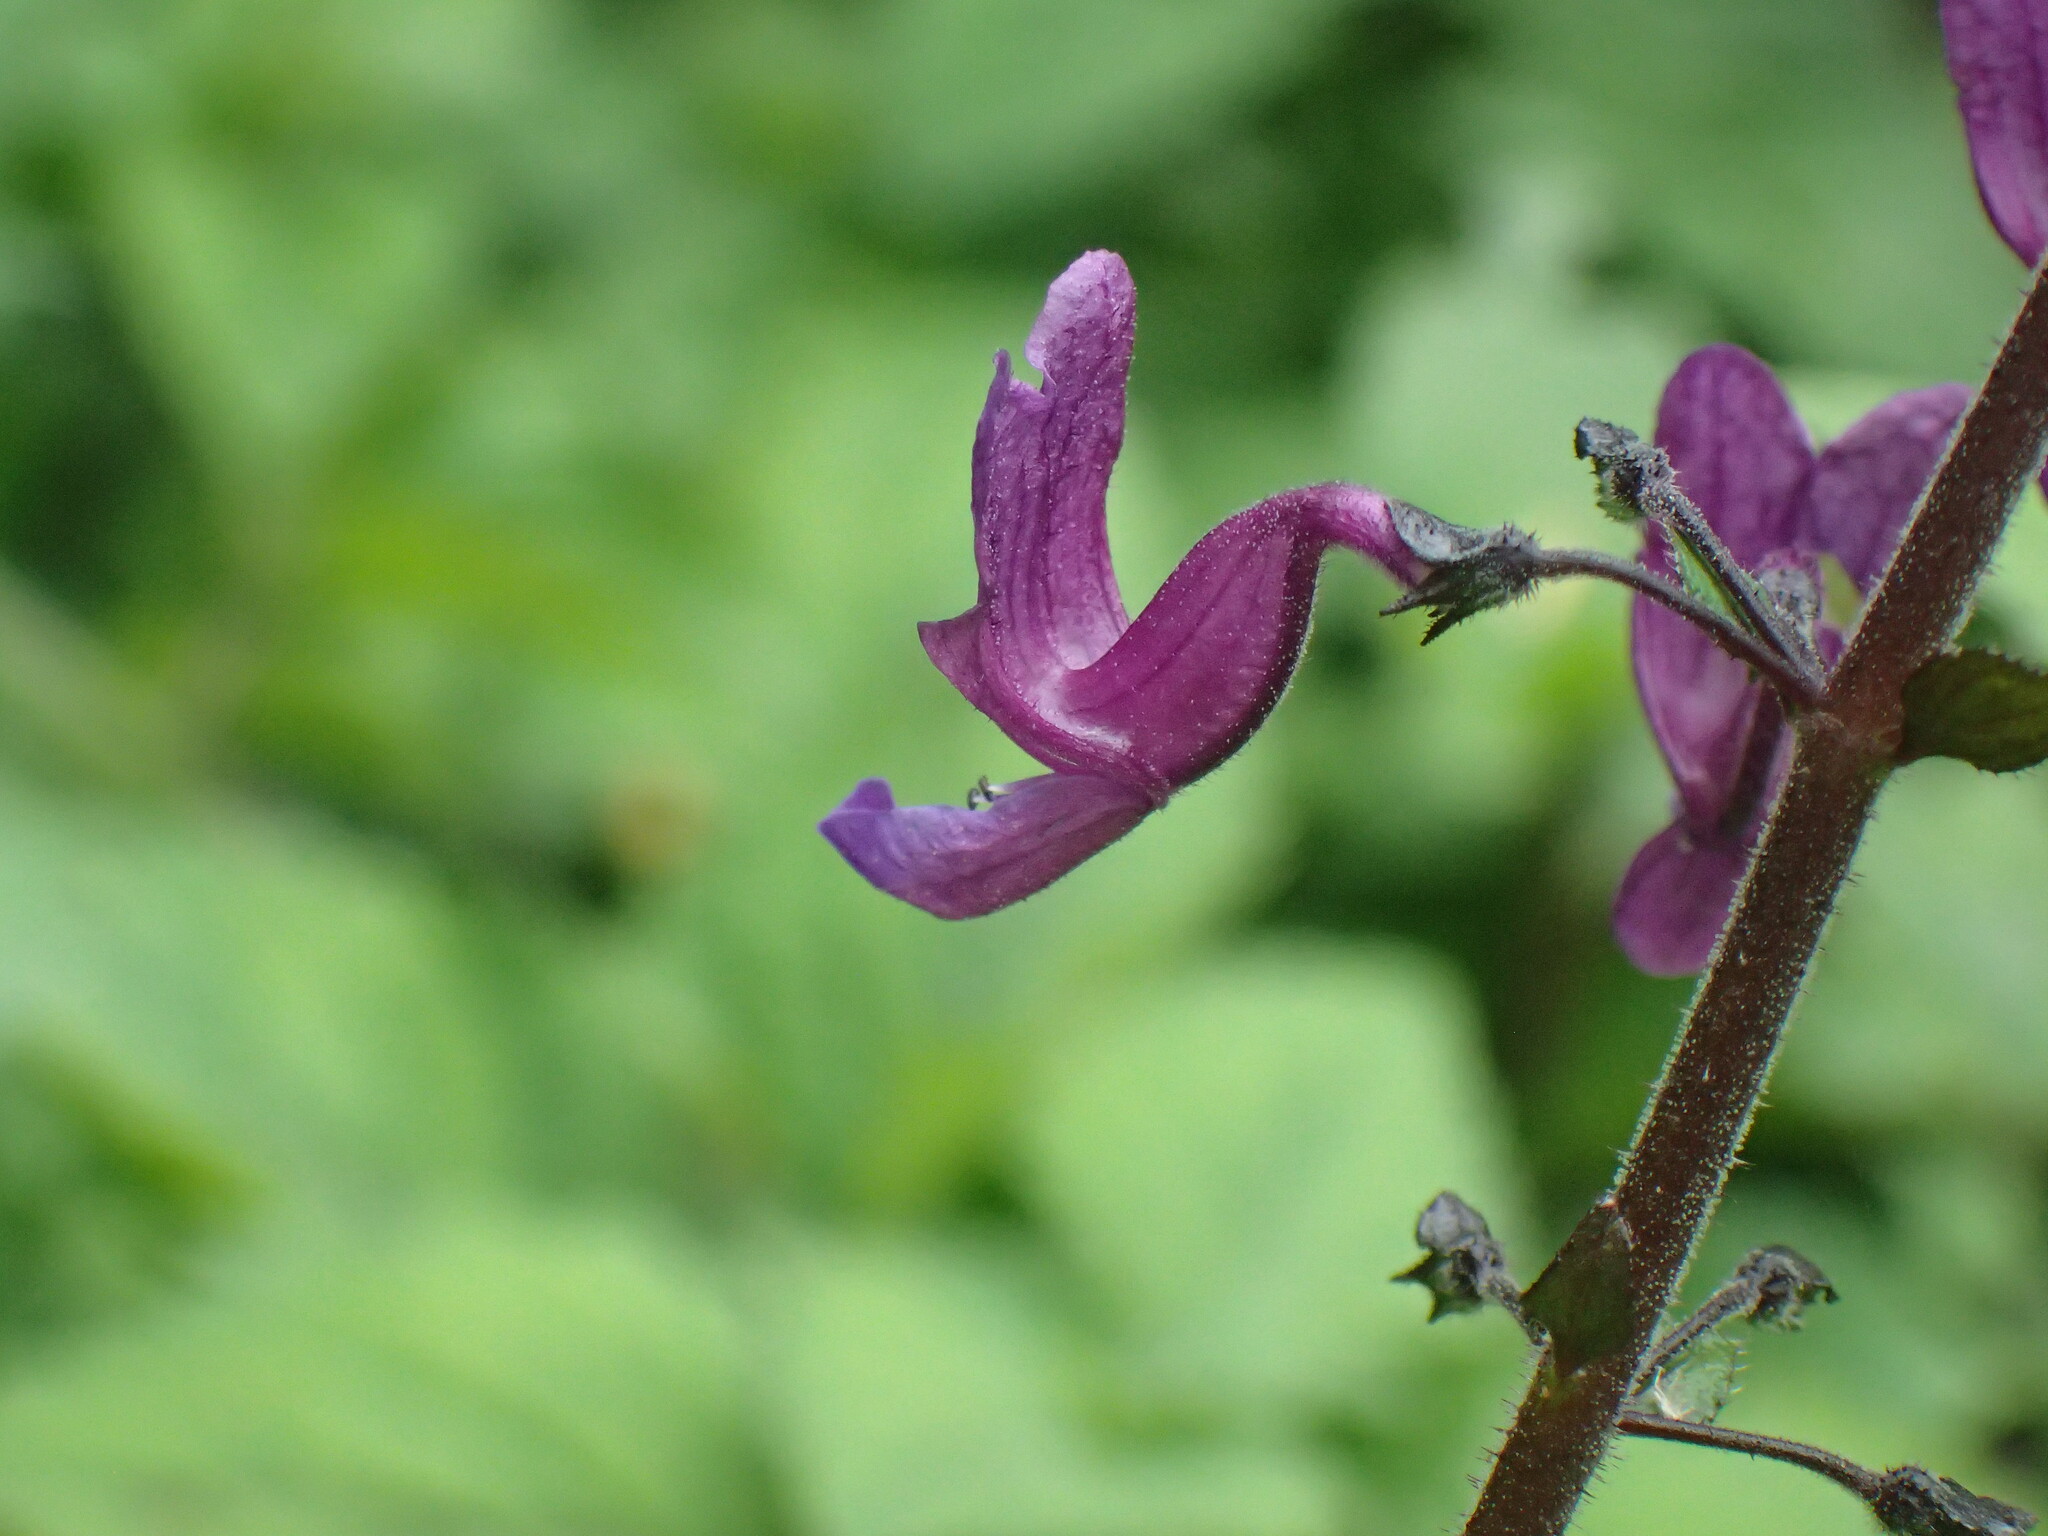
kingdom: Plantae
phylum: Tracheophyta
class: Magnoliopsida
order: Lamiales
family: Lamiaceae
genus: Equilabium
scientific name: Equilabium petiolare
